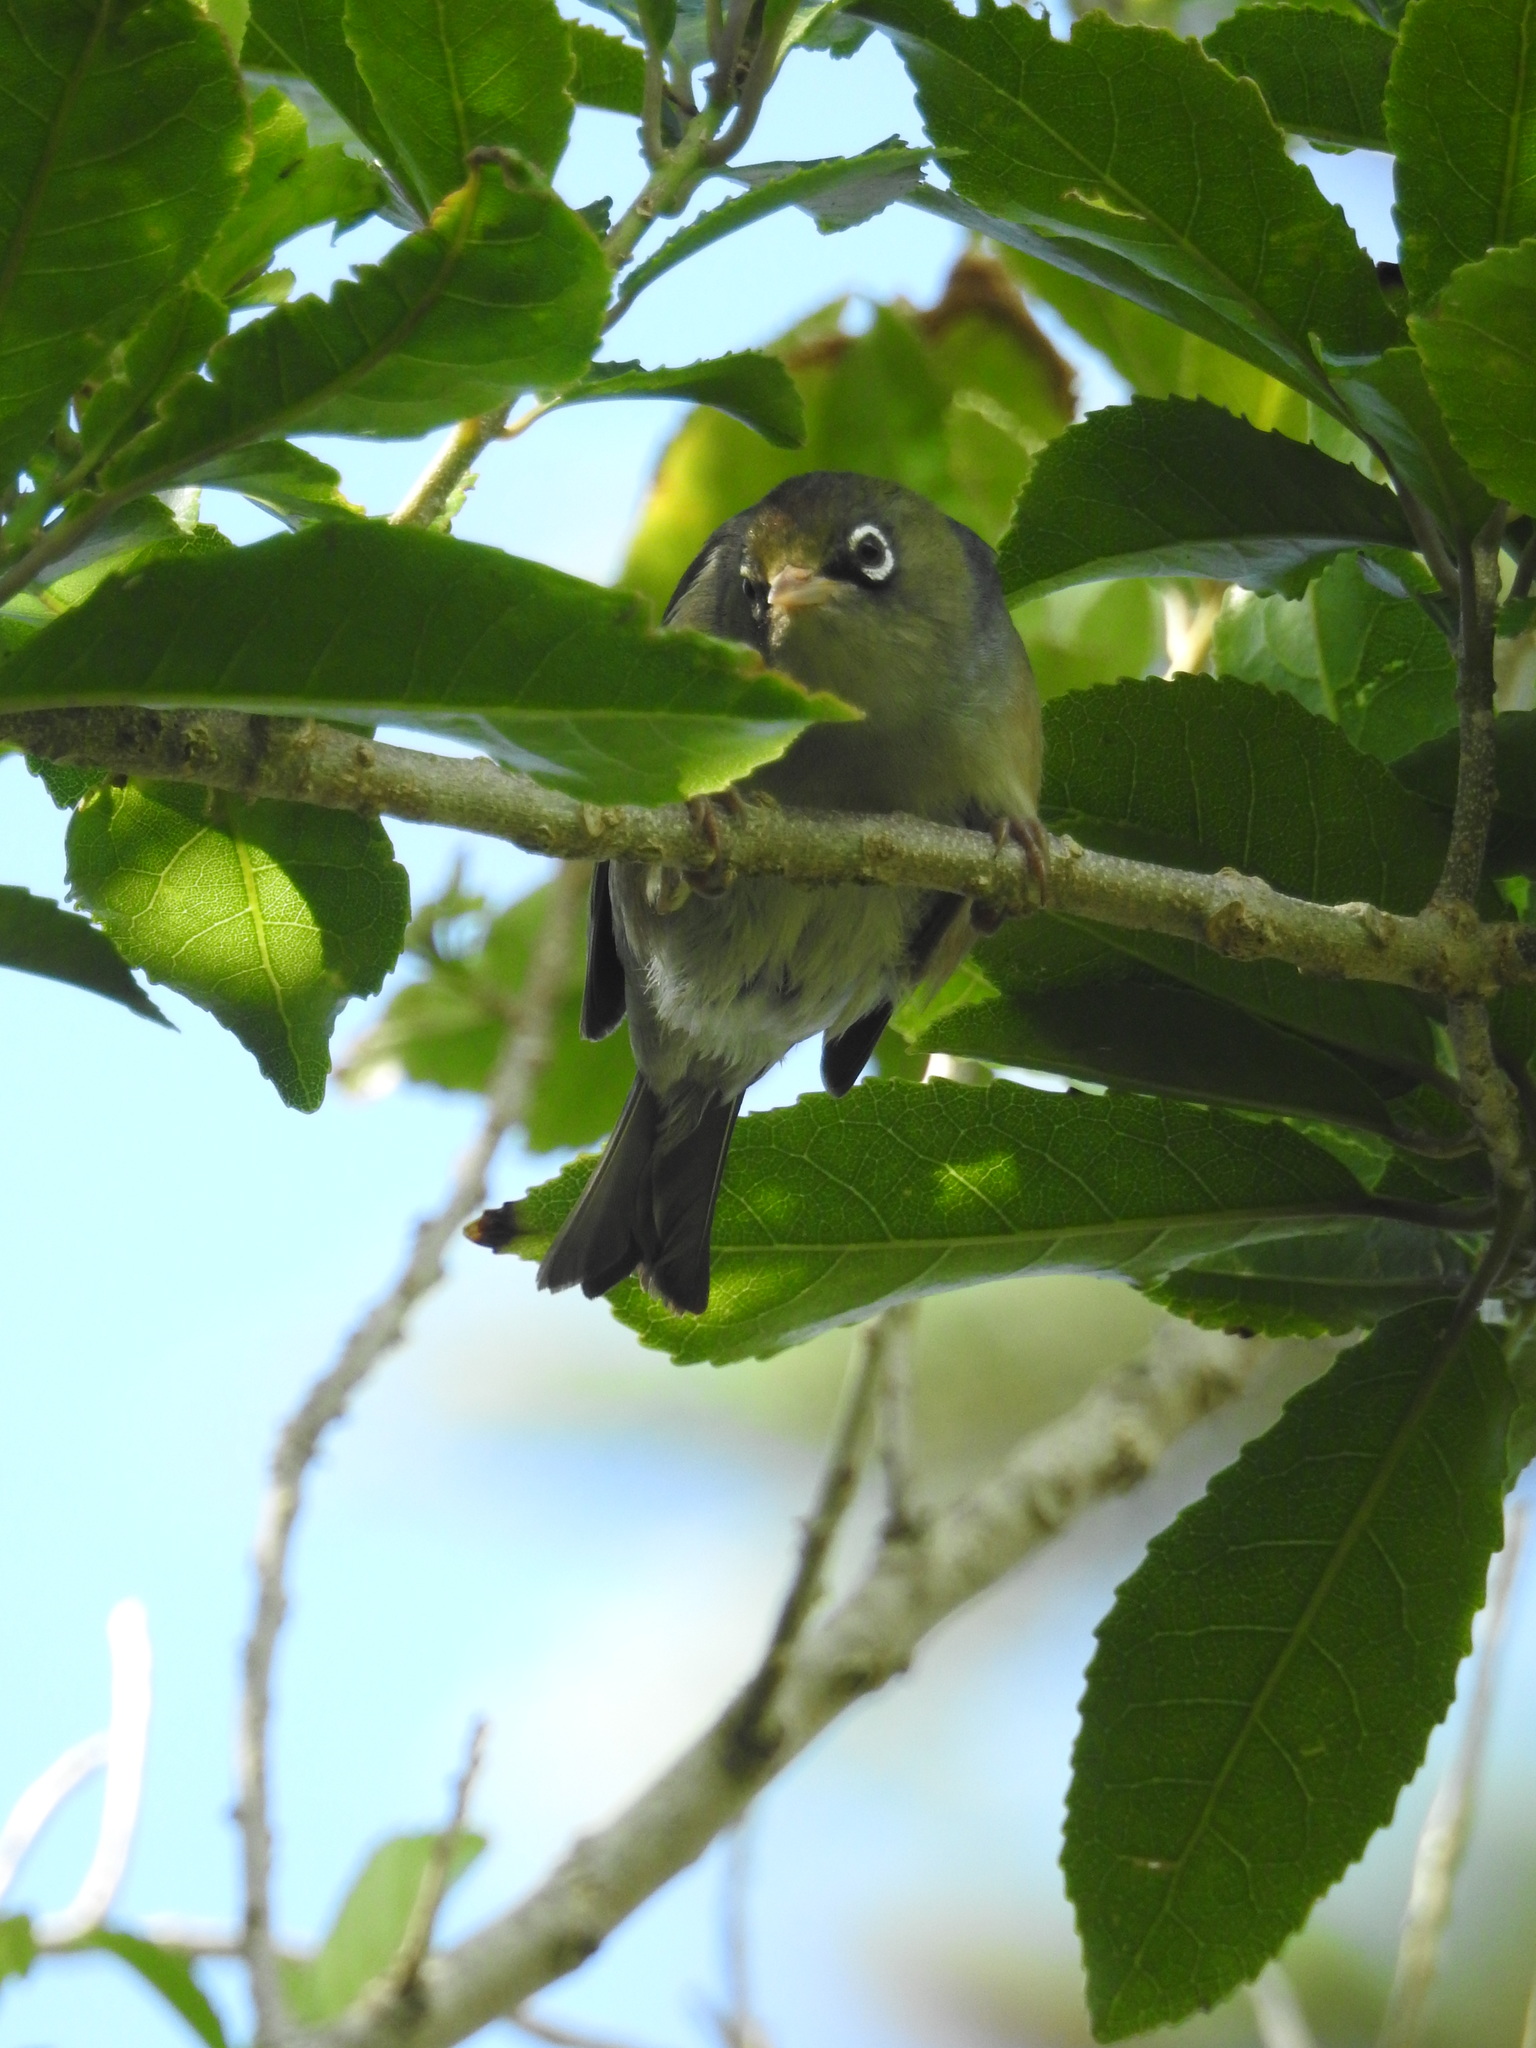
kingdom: Animalia
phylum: Chordata
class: Aves
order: Passeriformes
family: Zosteropidae
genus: Zosterops
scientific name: Zosterops lateralis
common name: Silvereye
